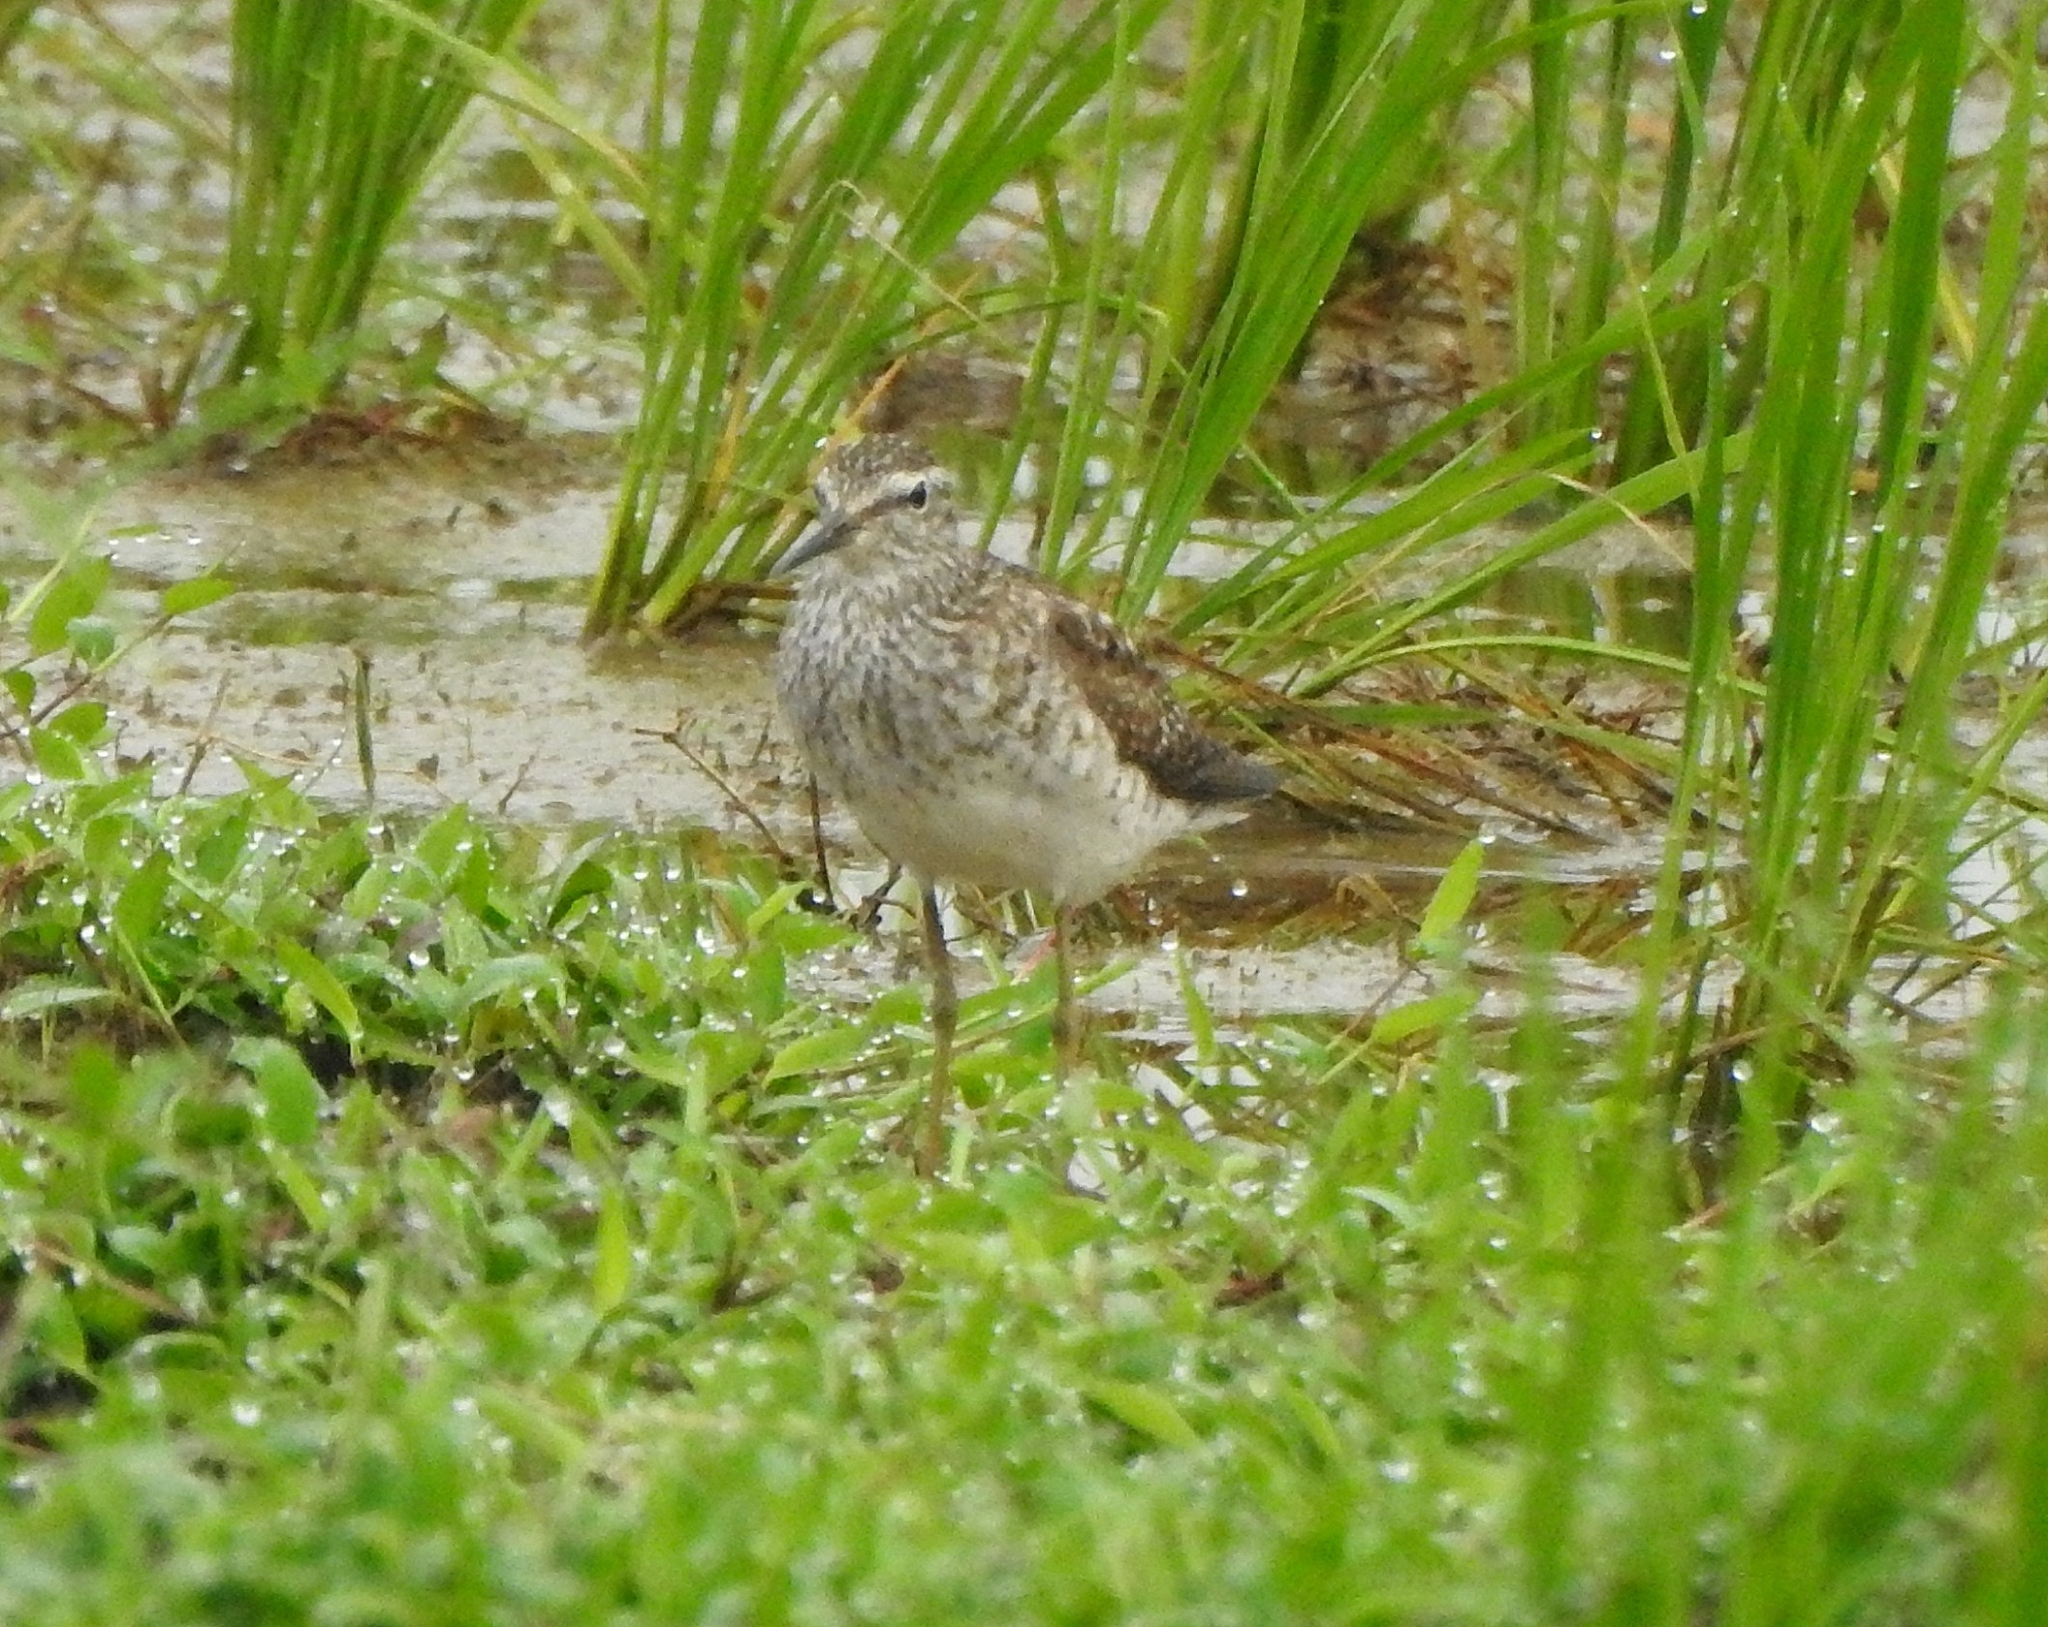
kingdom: Animalia
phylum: Chordata
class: Aves
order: Charadriiformes
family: Scolopacidae
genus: Tringa
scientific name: Tringa glareola
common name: Wood sandpiper
